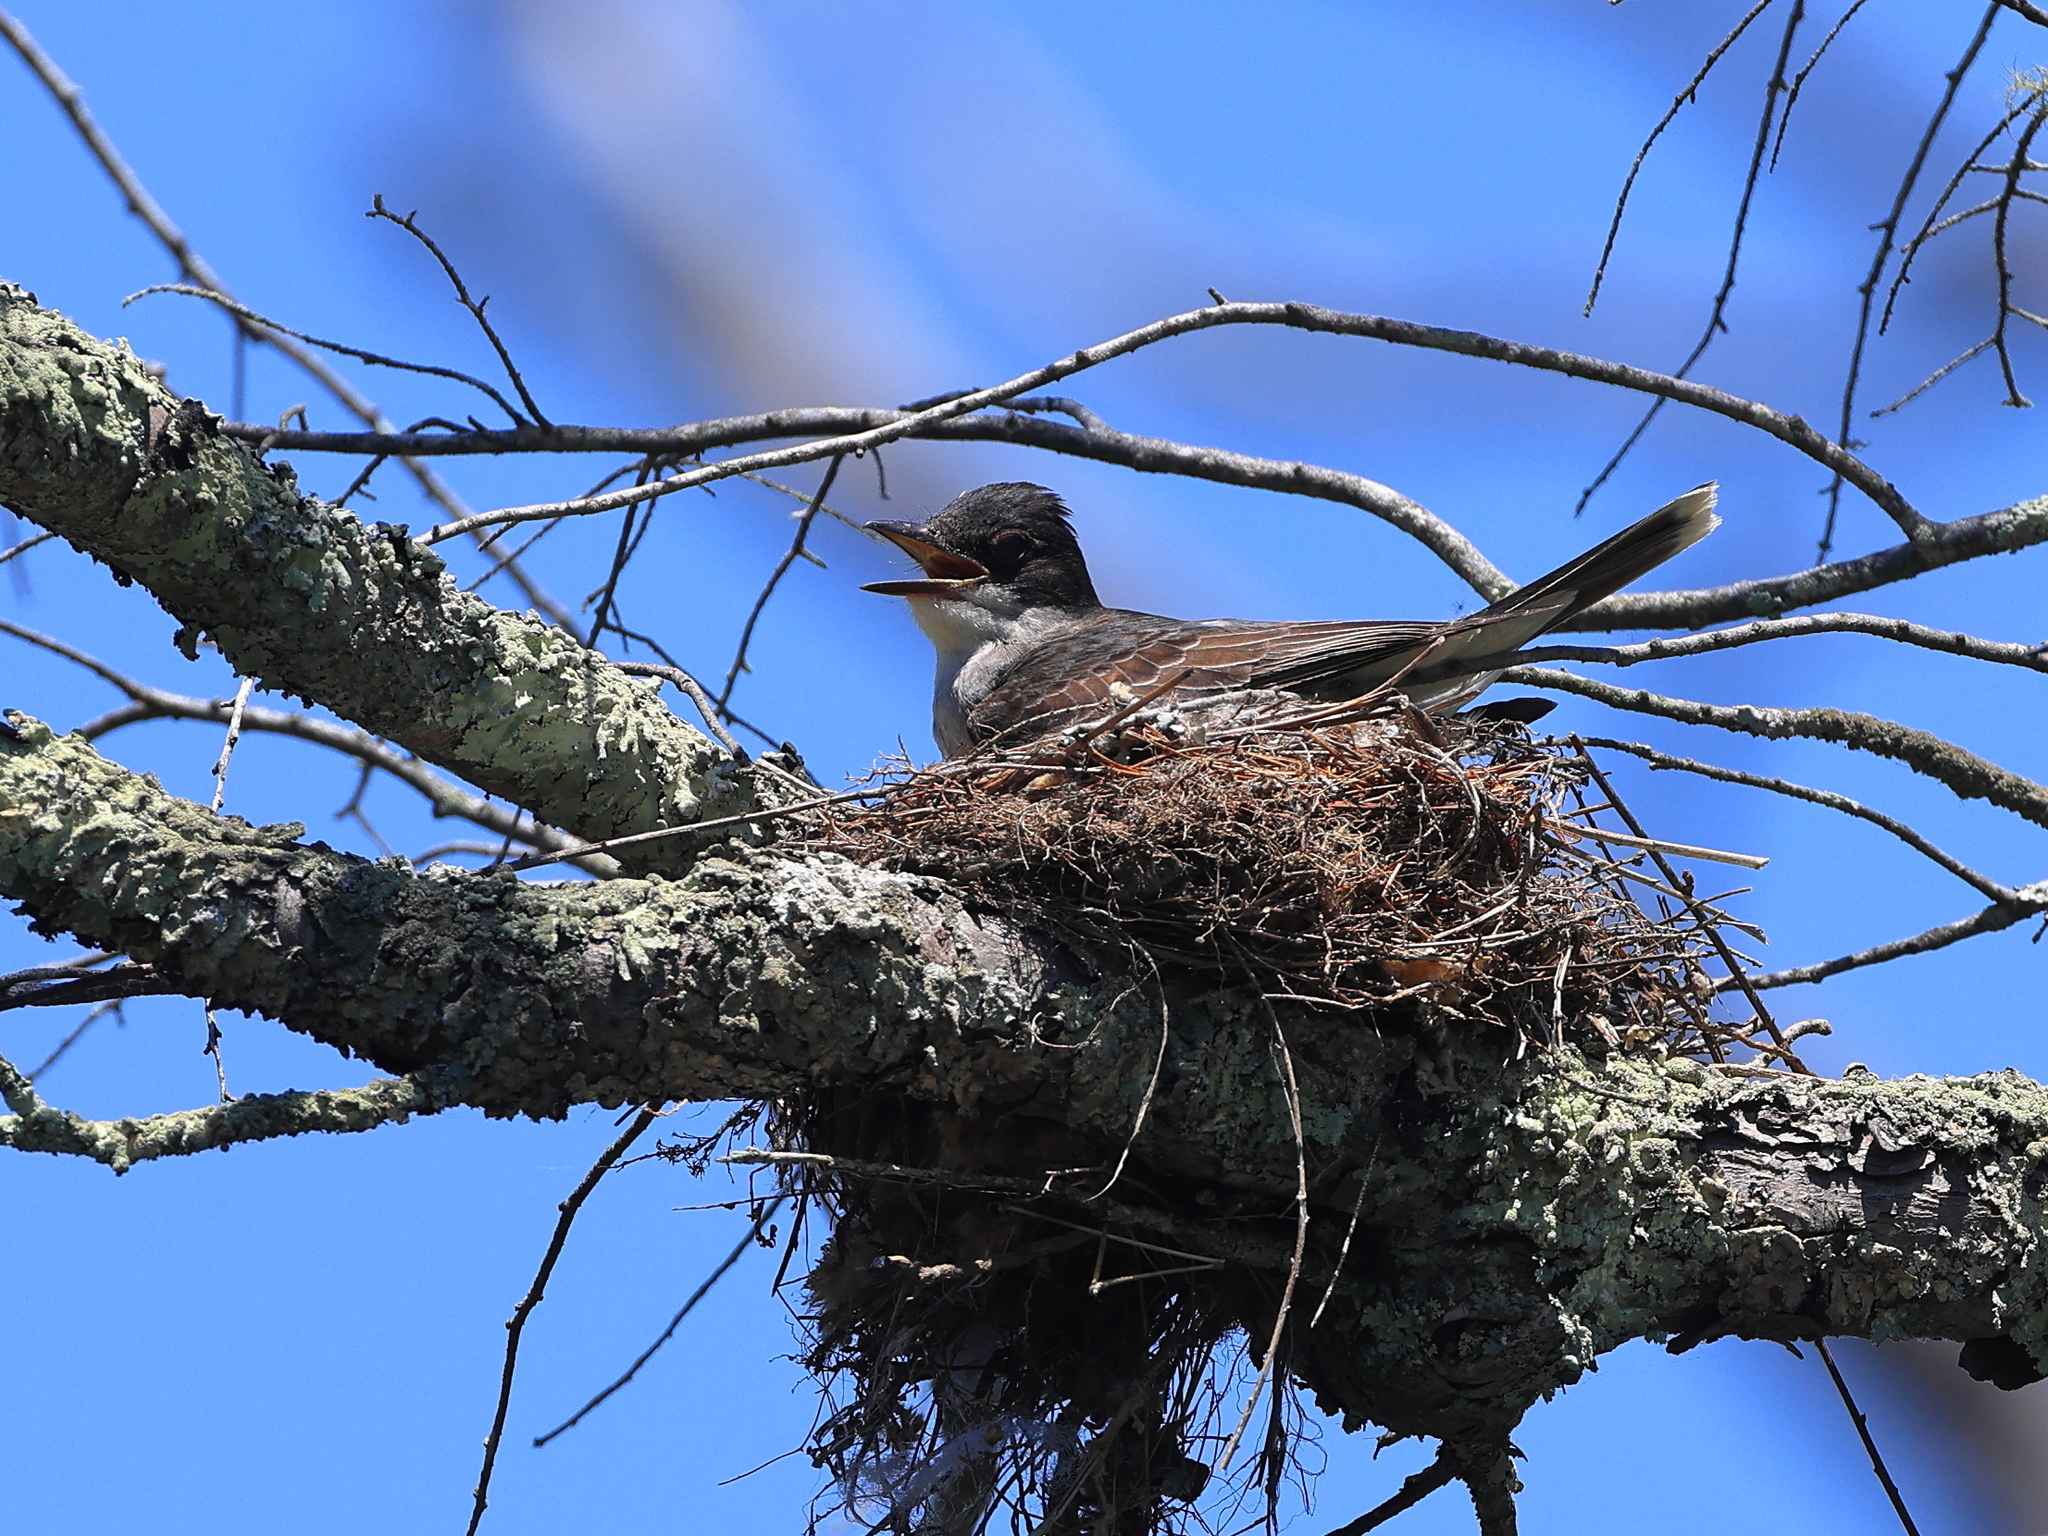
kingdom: Animalia
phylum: Chordata
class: Aves
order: Passeriformes
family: Tyrannidae
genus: Tyrannus
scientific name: Tyrannus tyrannus
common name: Eastern kingbird
